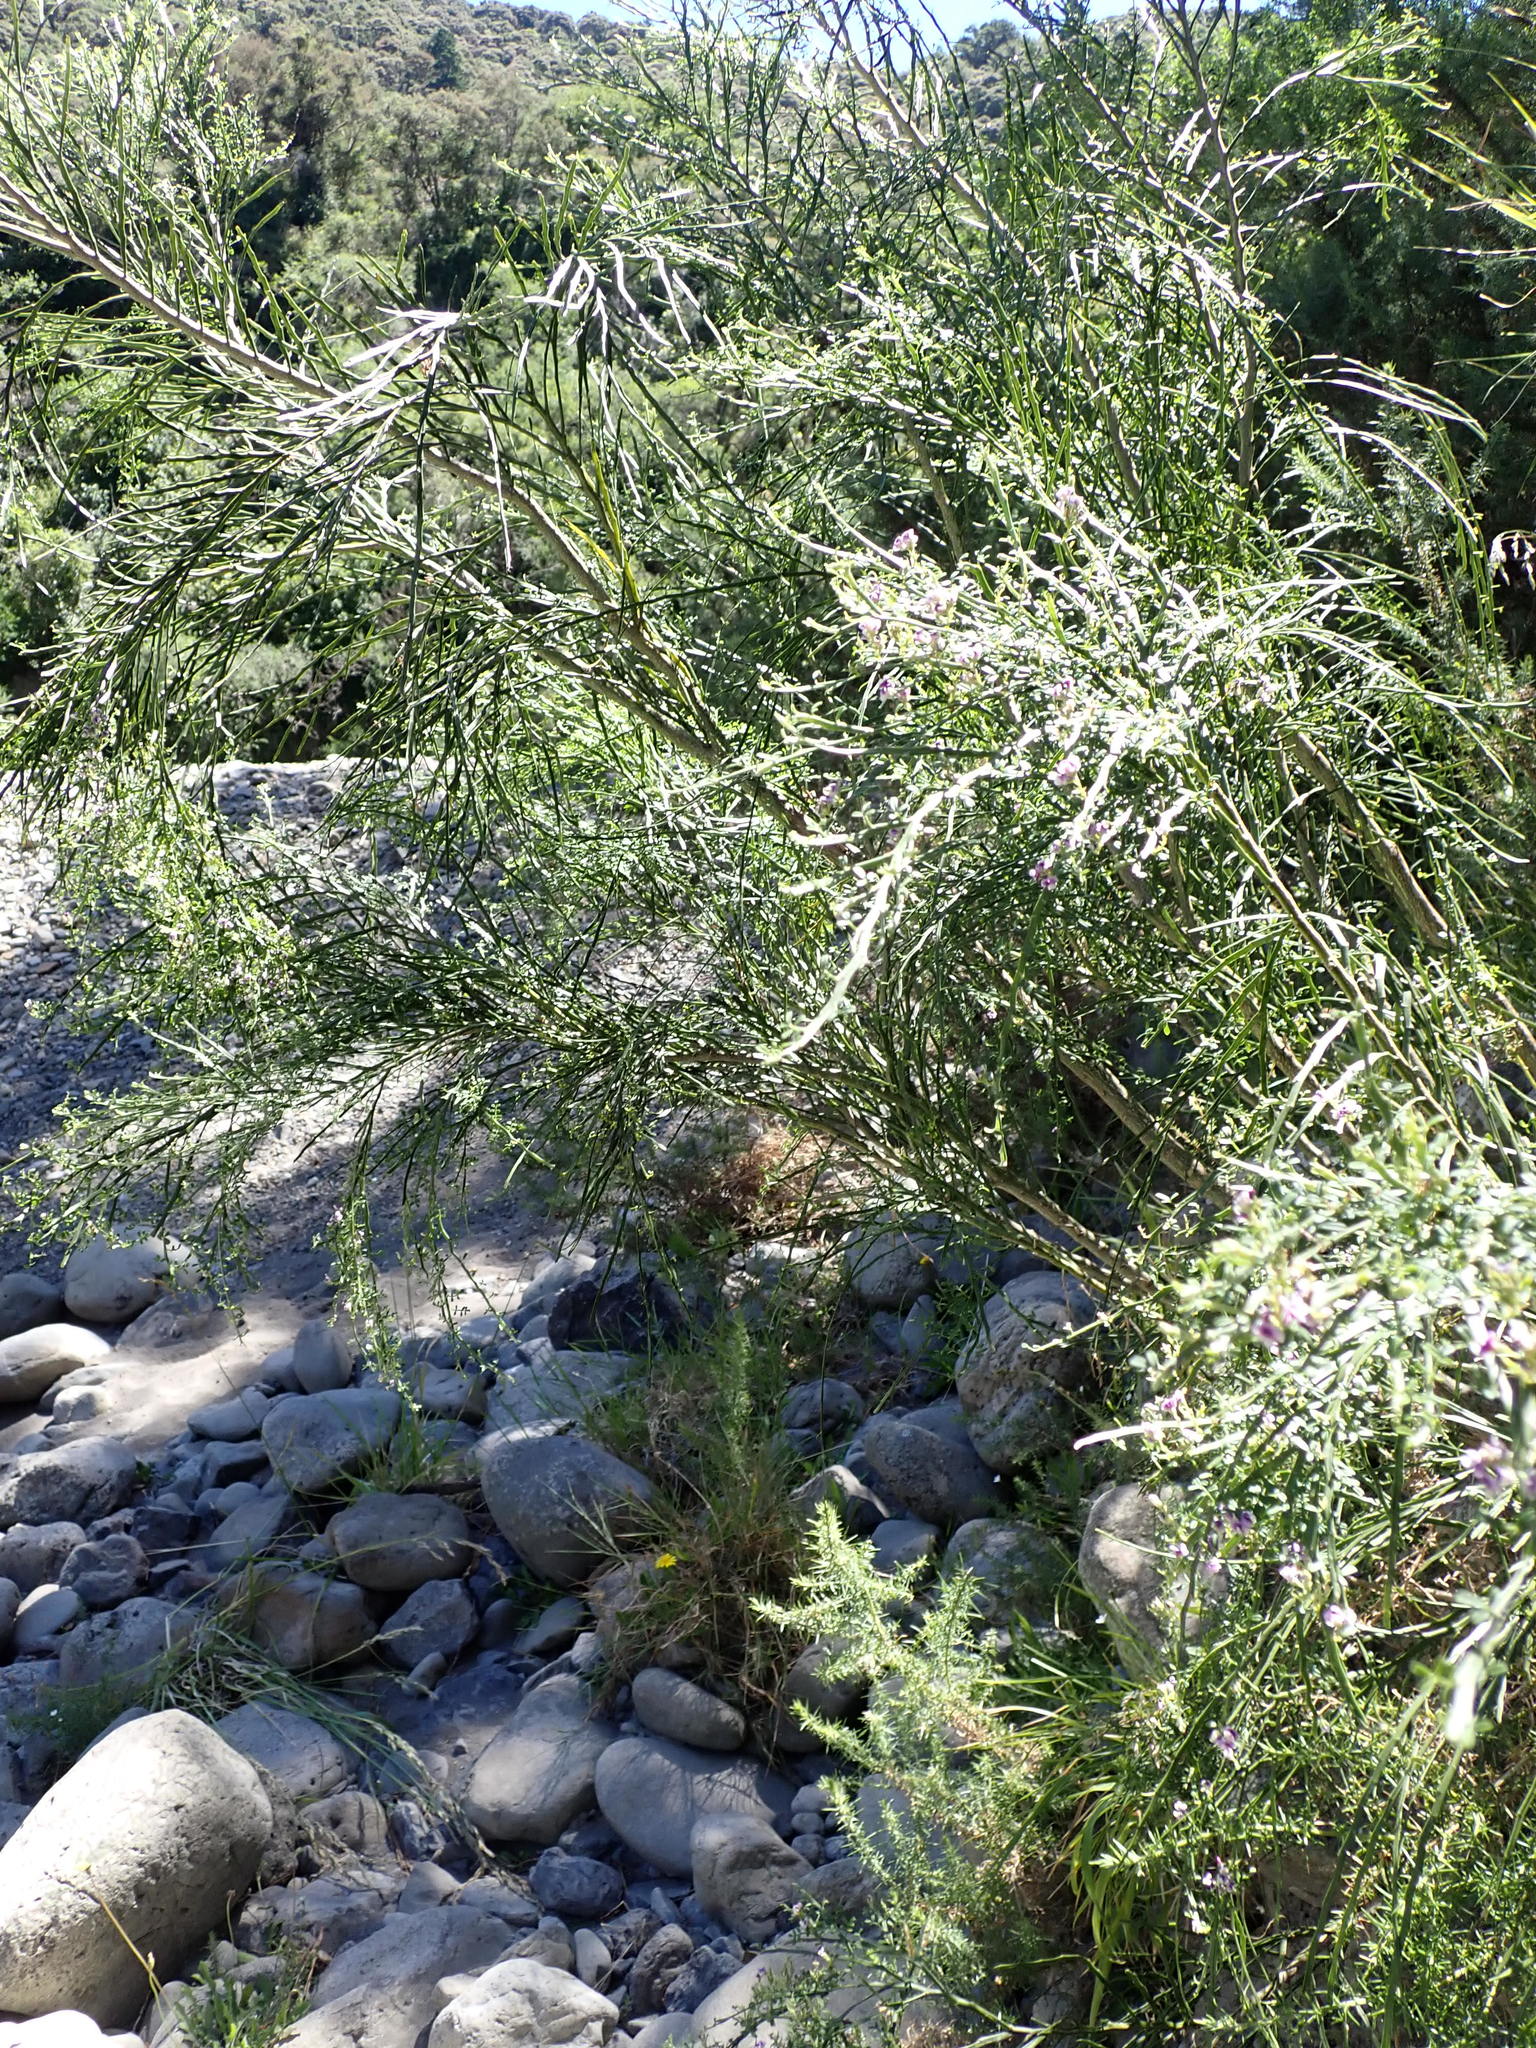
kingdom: Plantae
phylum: Tracheophyta
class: Magnoliopsida
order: Fabales
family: Fabaceae
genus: Carmichaelia
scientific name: Carmichaelia odorata
